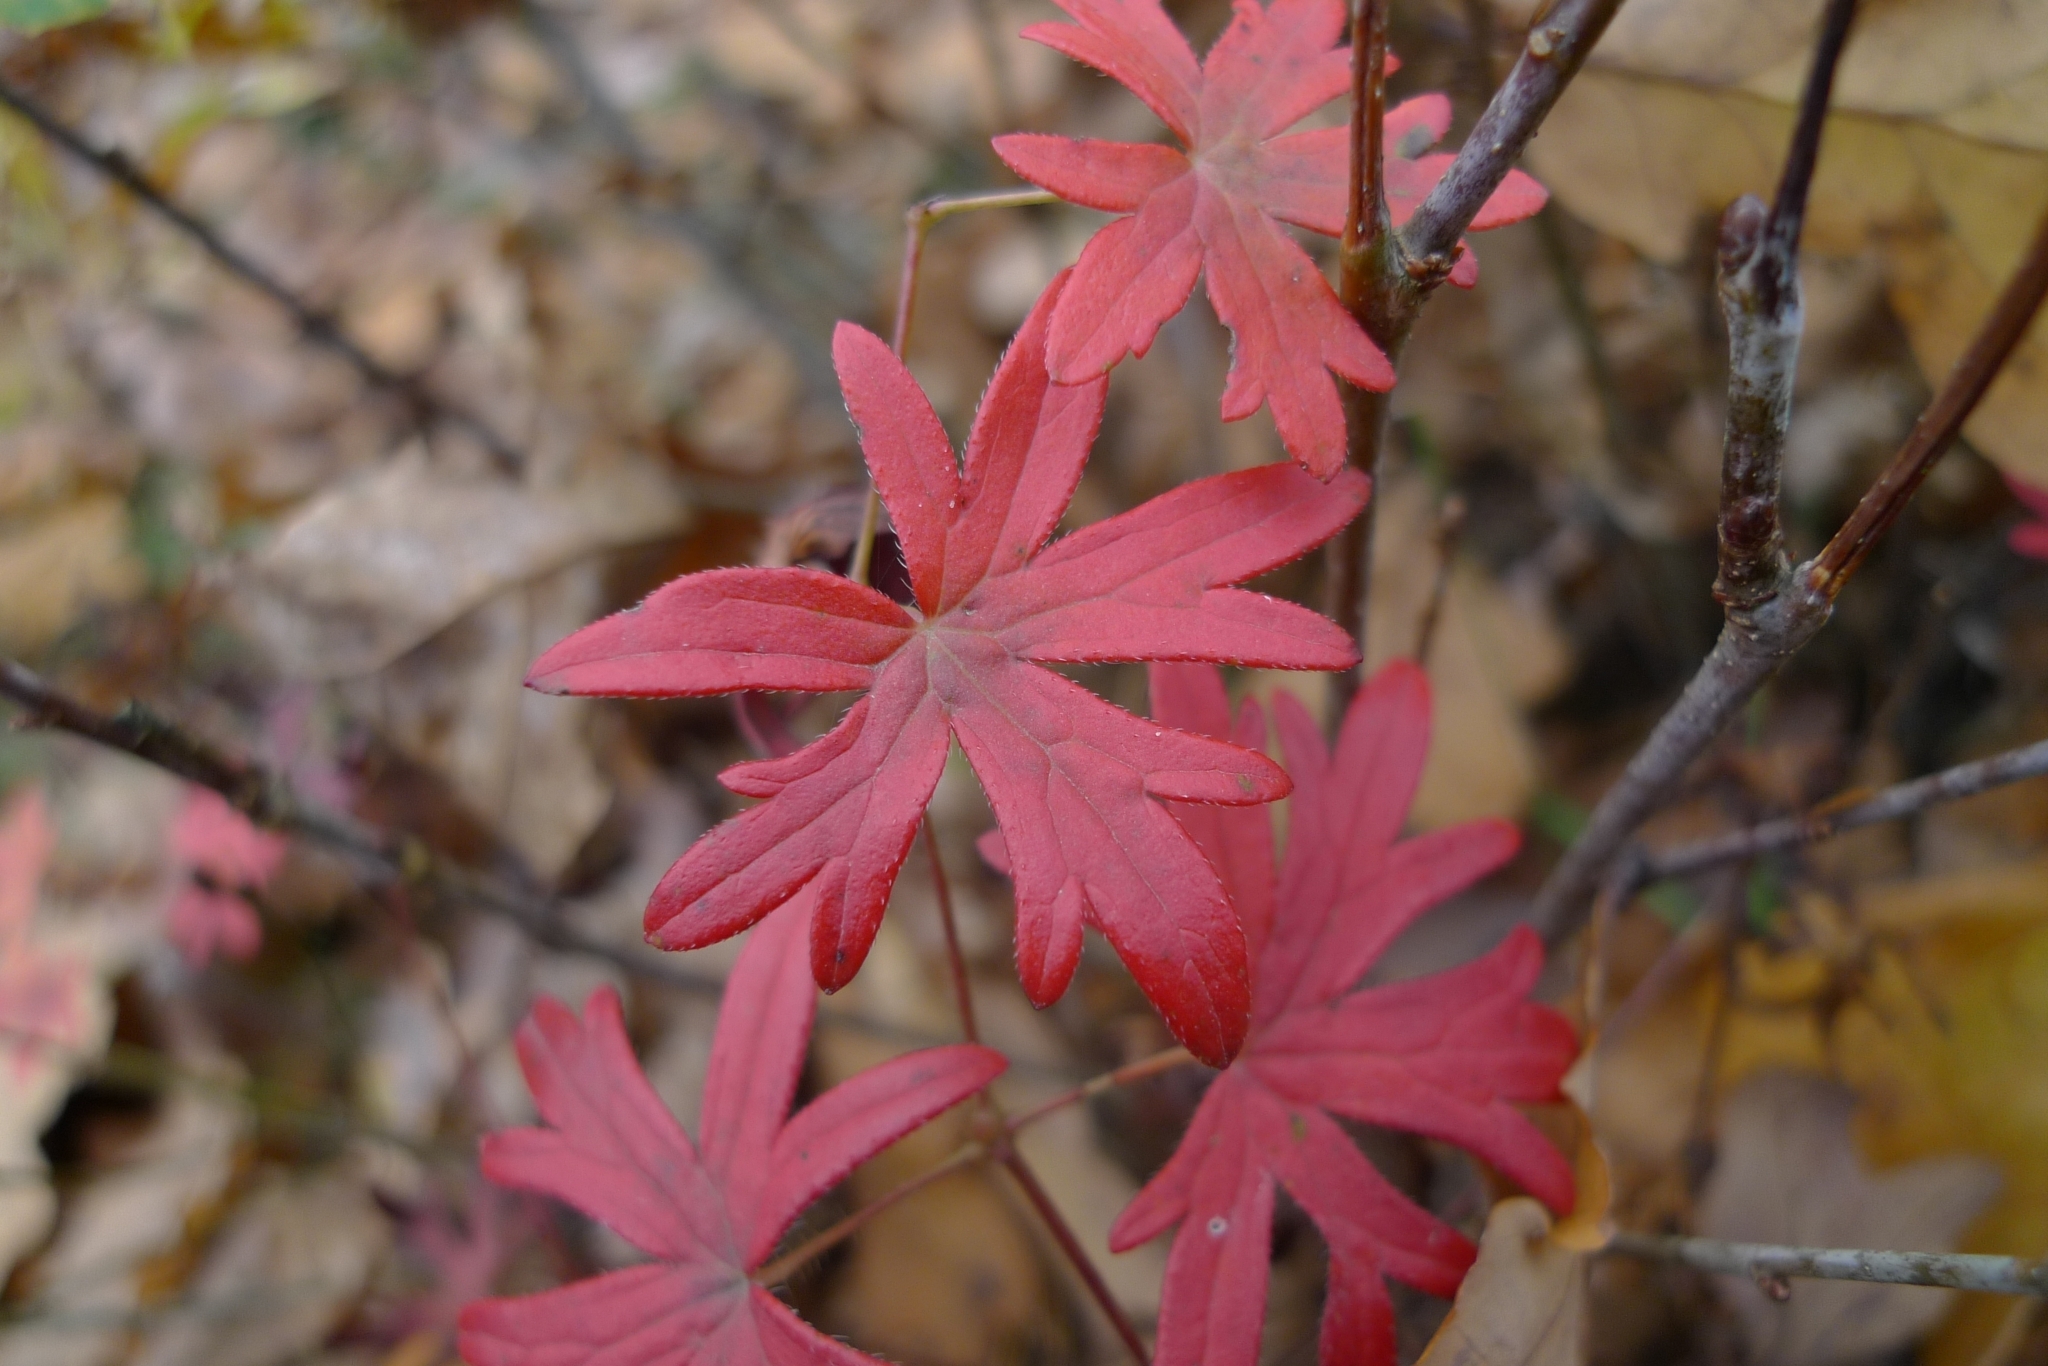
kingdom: Plantae
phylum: Tracheophyta
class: Magnoliopsida
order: Geraniales
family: Geraniaceae
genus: Geranium
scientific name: Geranium sanguineum
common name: Bloody crane's-bill
